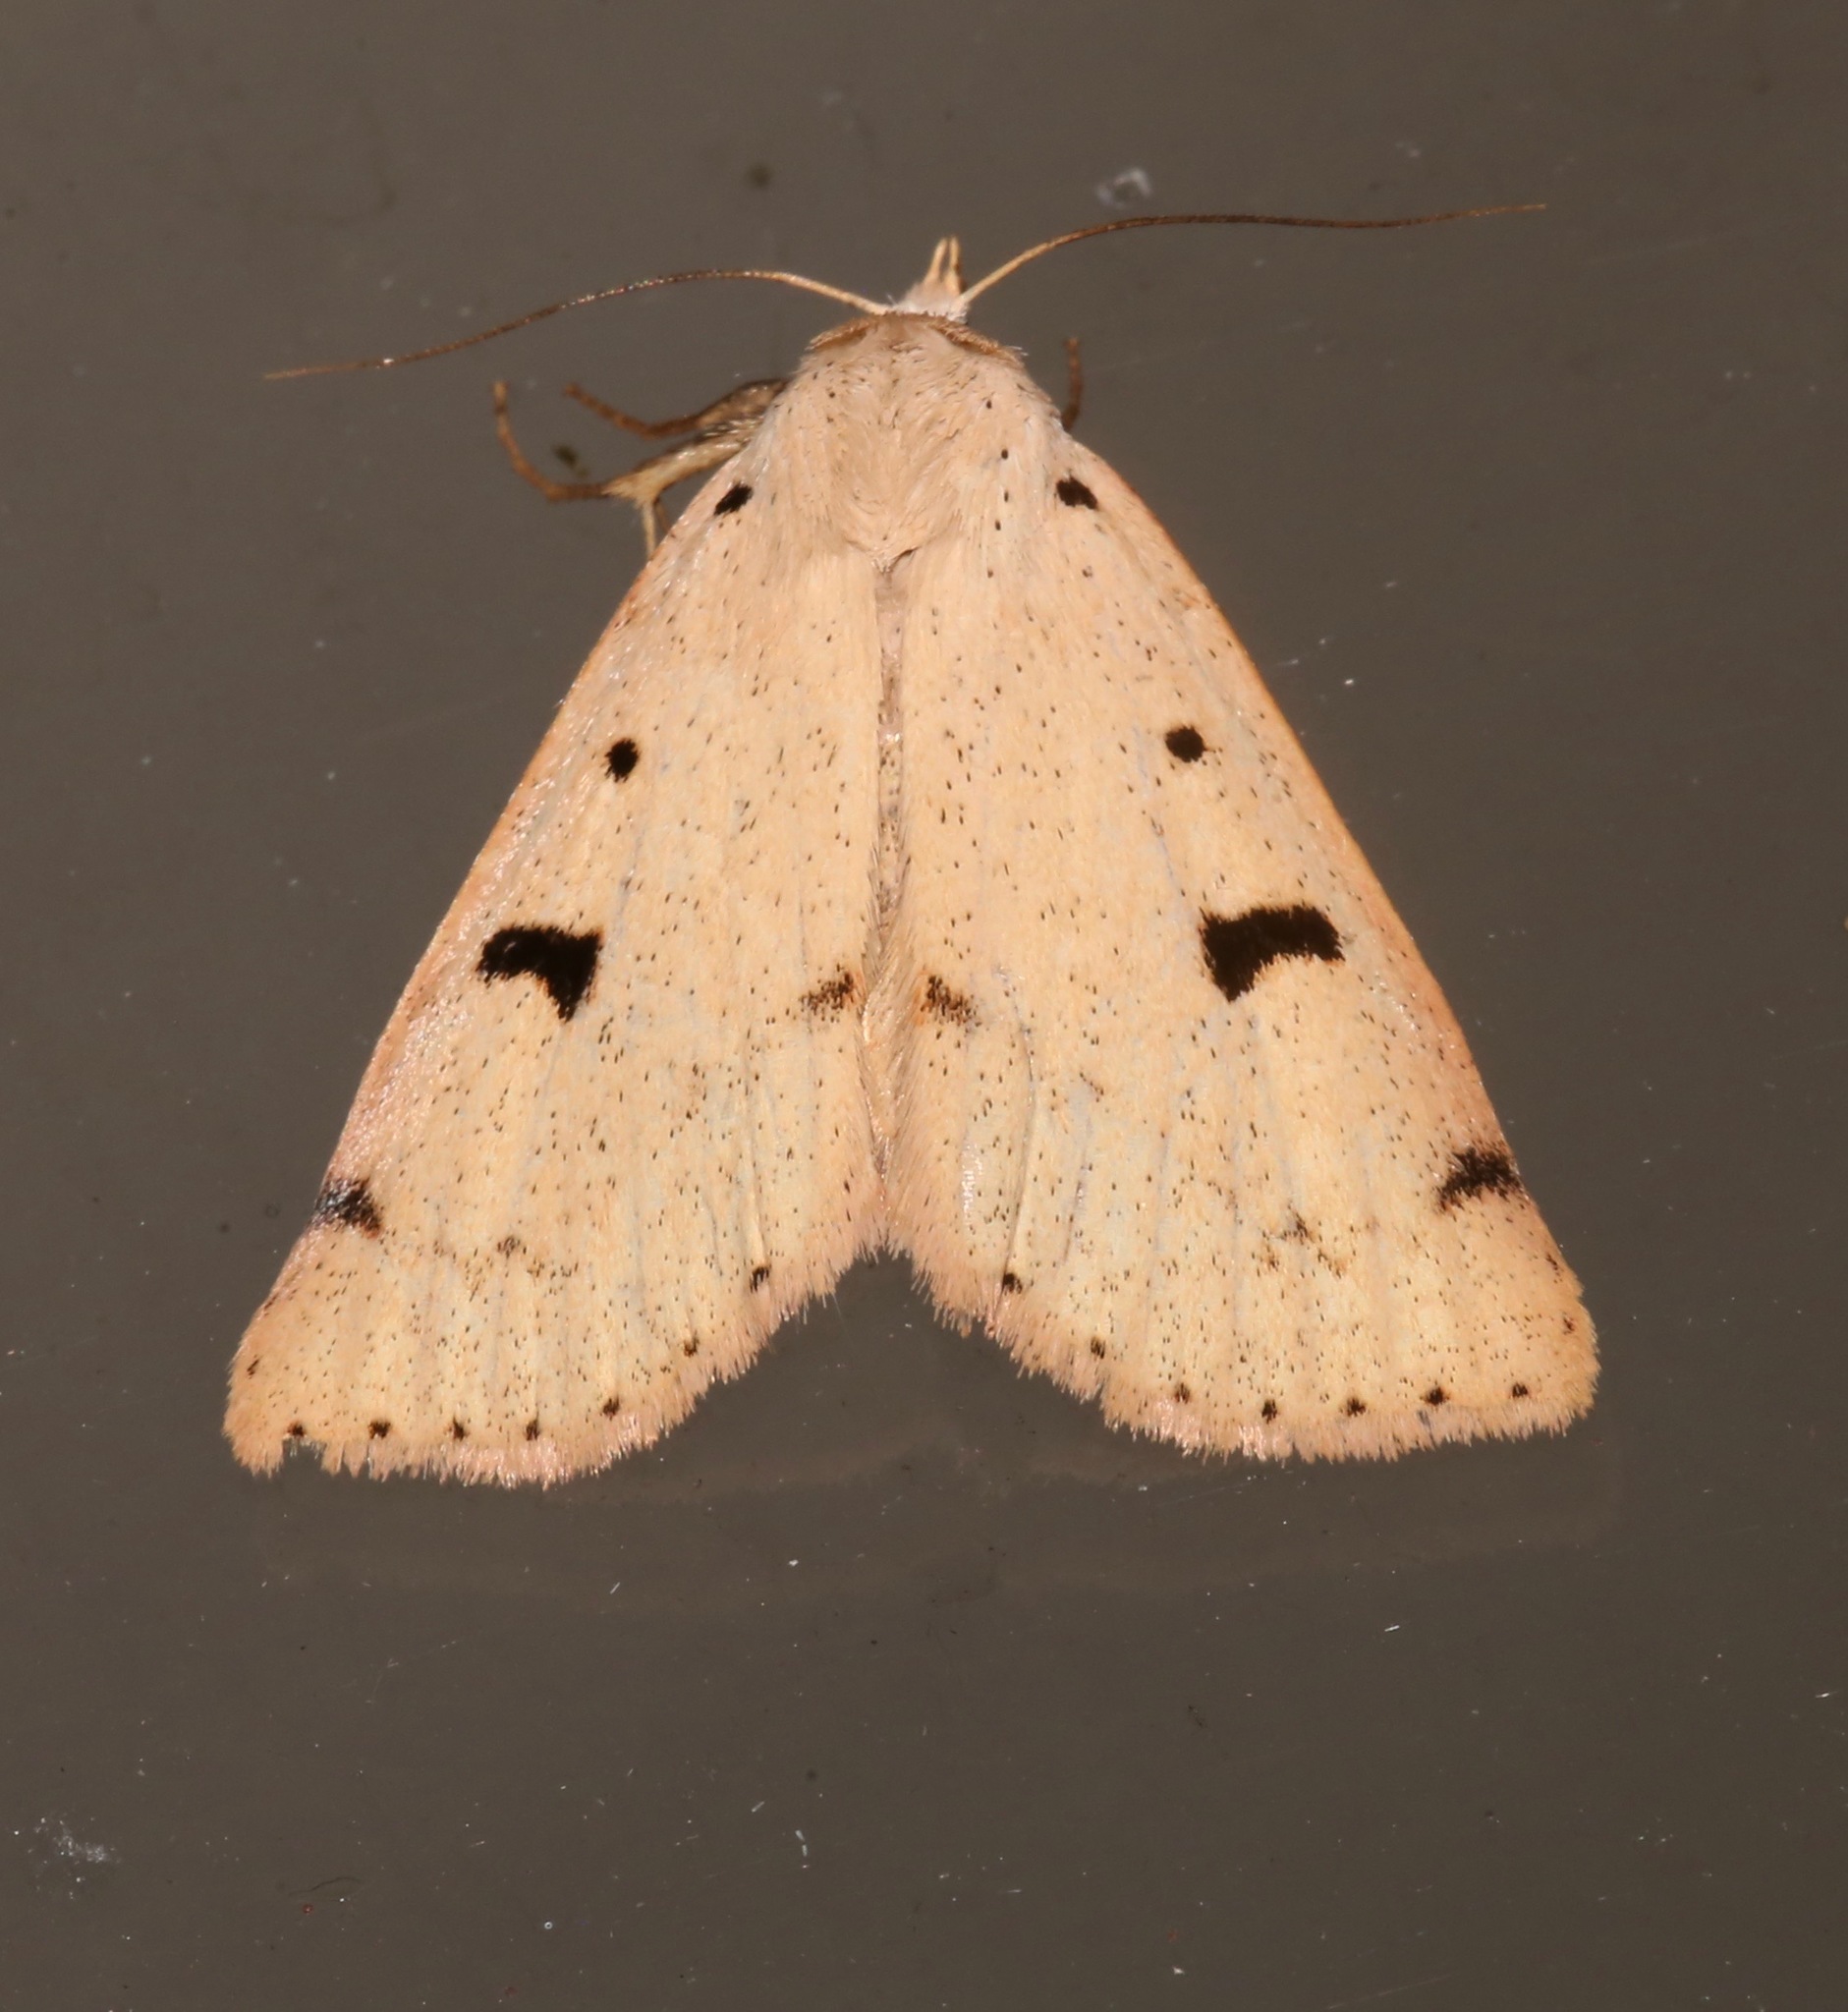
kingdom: Animalia
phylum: Arthropoda
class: Insecta
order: Lepidoptera
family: Erebidae
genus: Scolecocampa
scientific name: Scolecocampa atriluna
